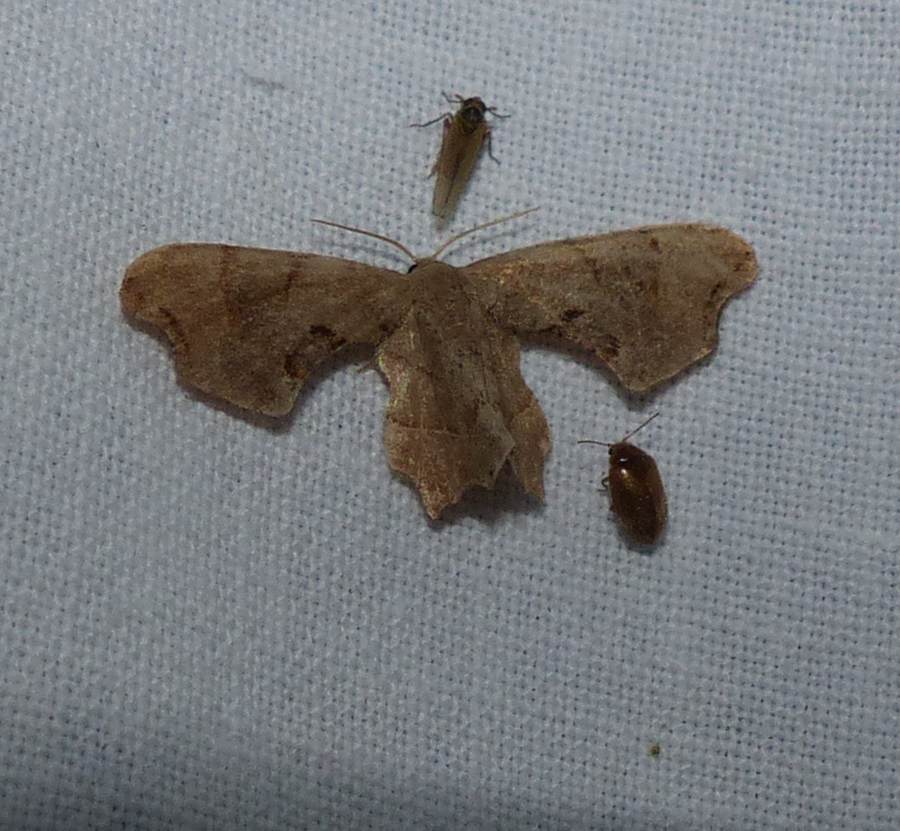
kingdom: Animalia
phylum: Arthropoda
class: Insecta
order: Lepidoptera
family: Uraniidae
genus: Epiplema
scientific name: Epiplema Calledapteryx dryopterata
